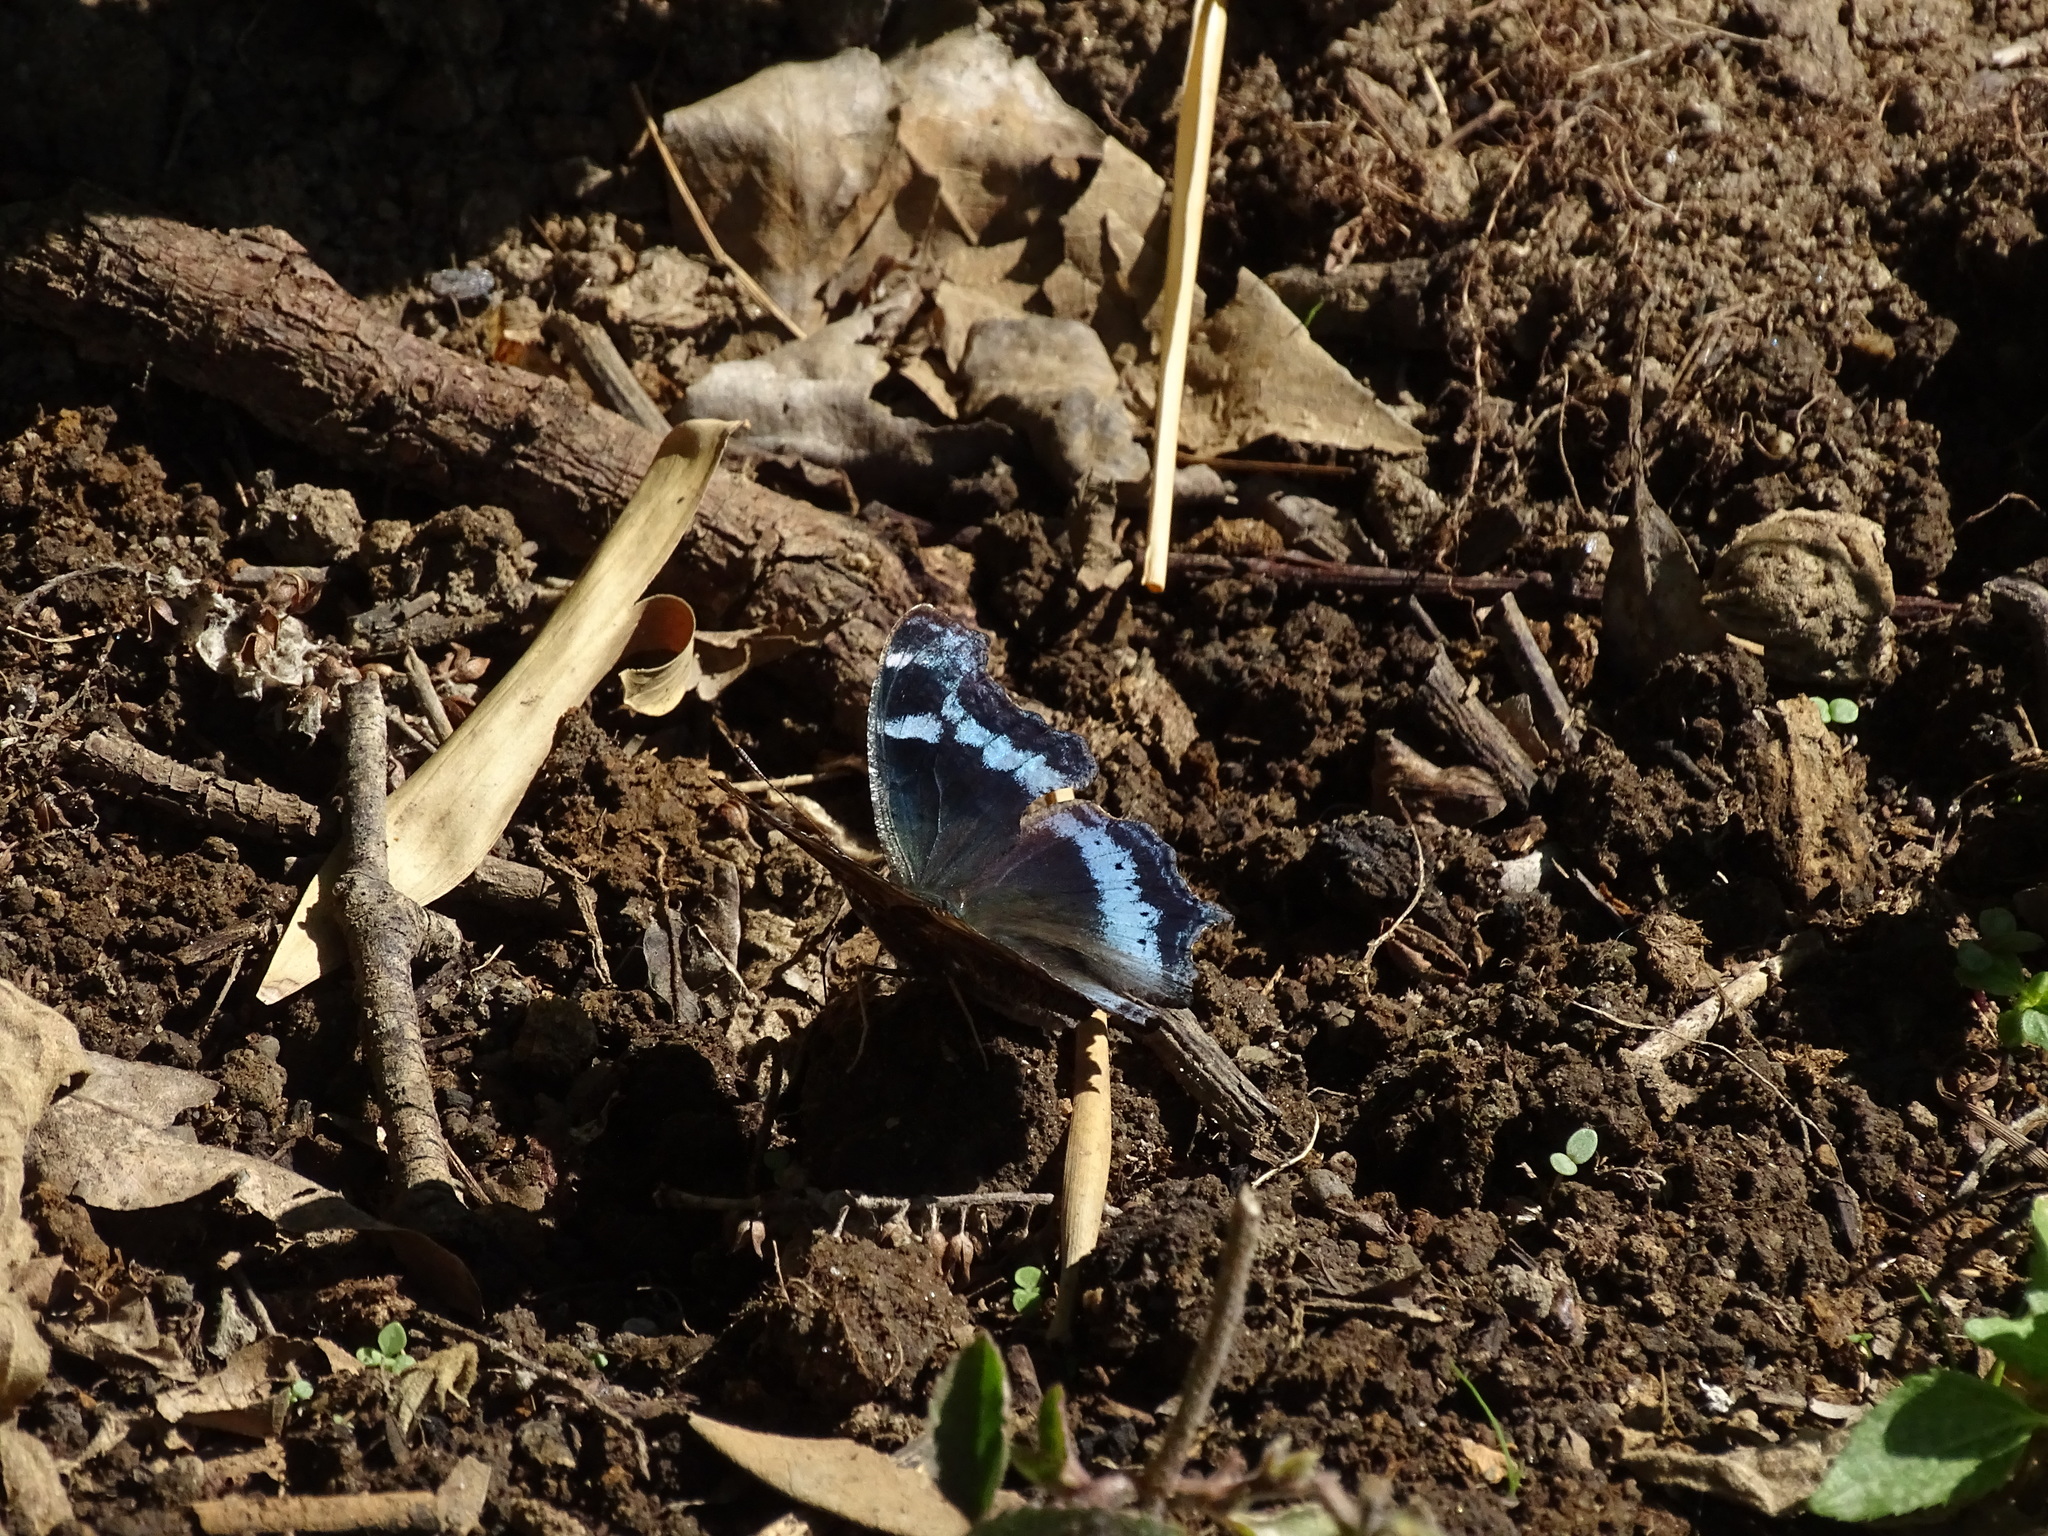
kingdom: Animalia
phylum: Arthropoda
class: Insecta
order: Lepidoptera
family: Nymphalidae
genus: Vanessa
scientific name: Vanessa Kaniska canace
